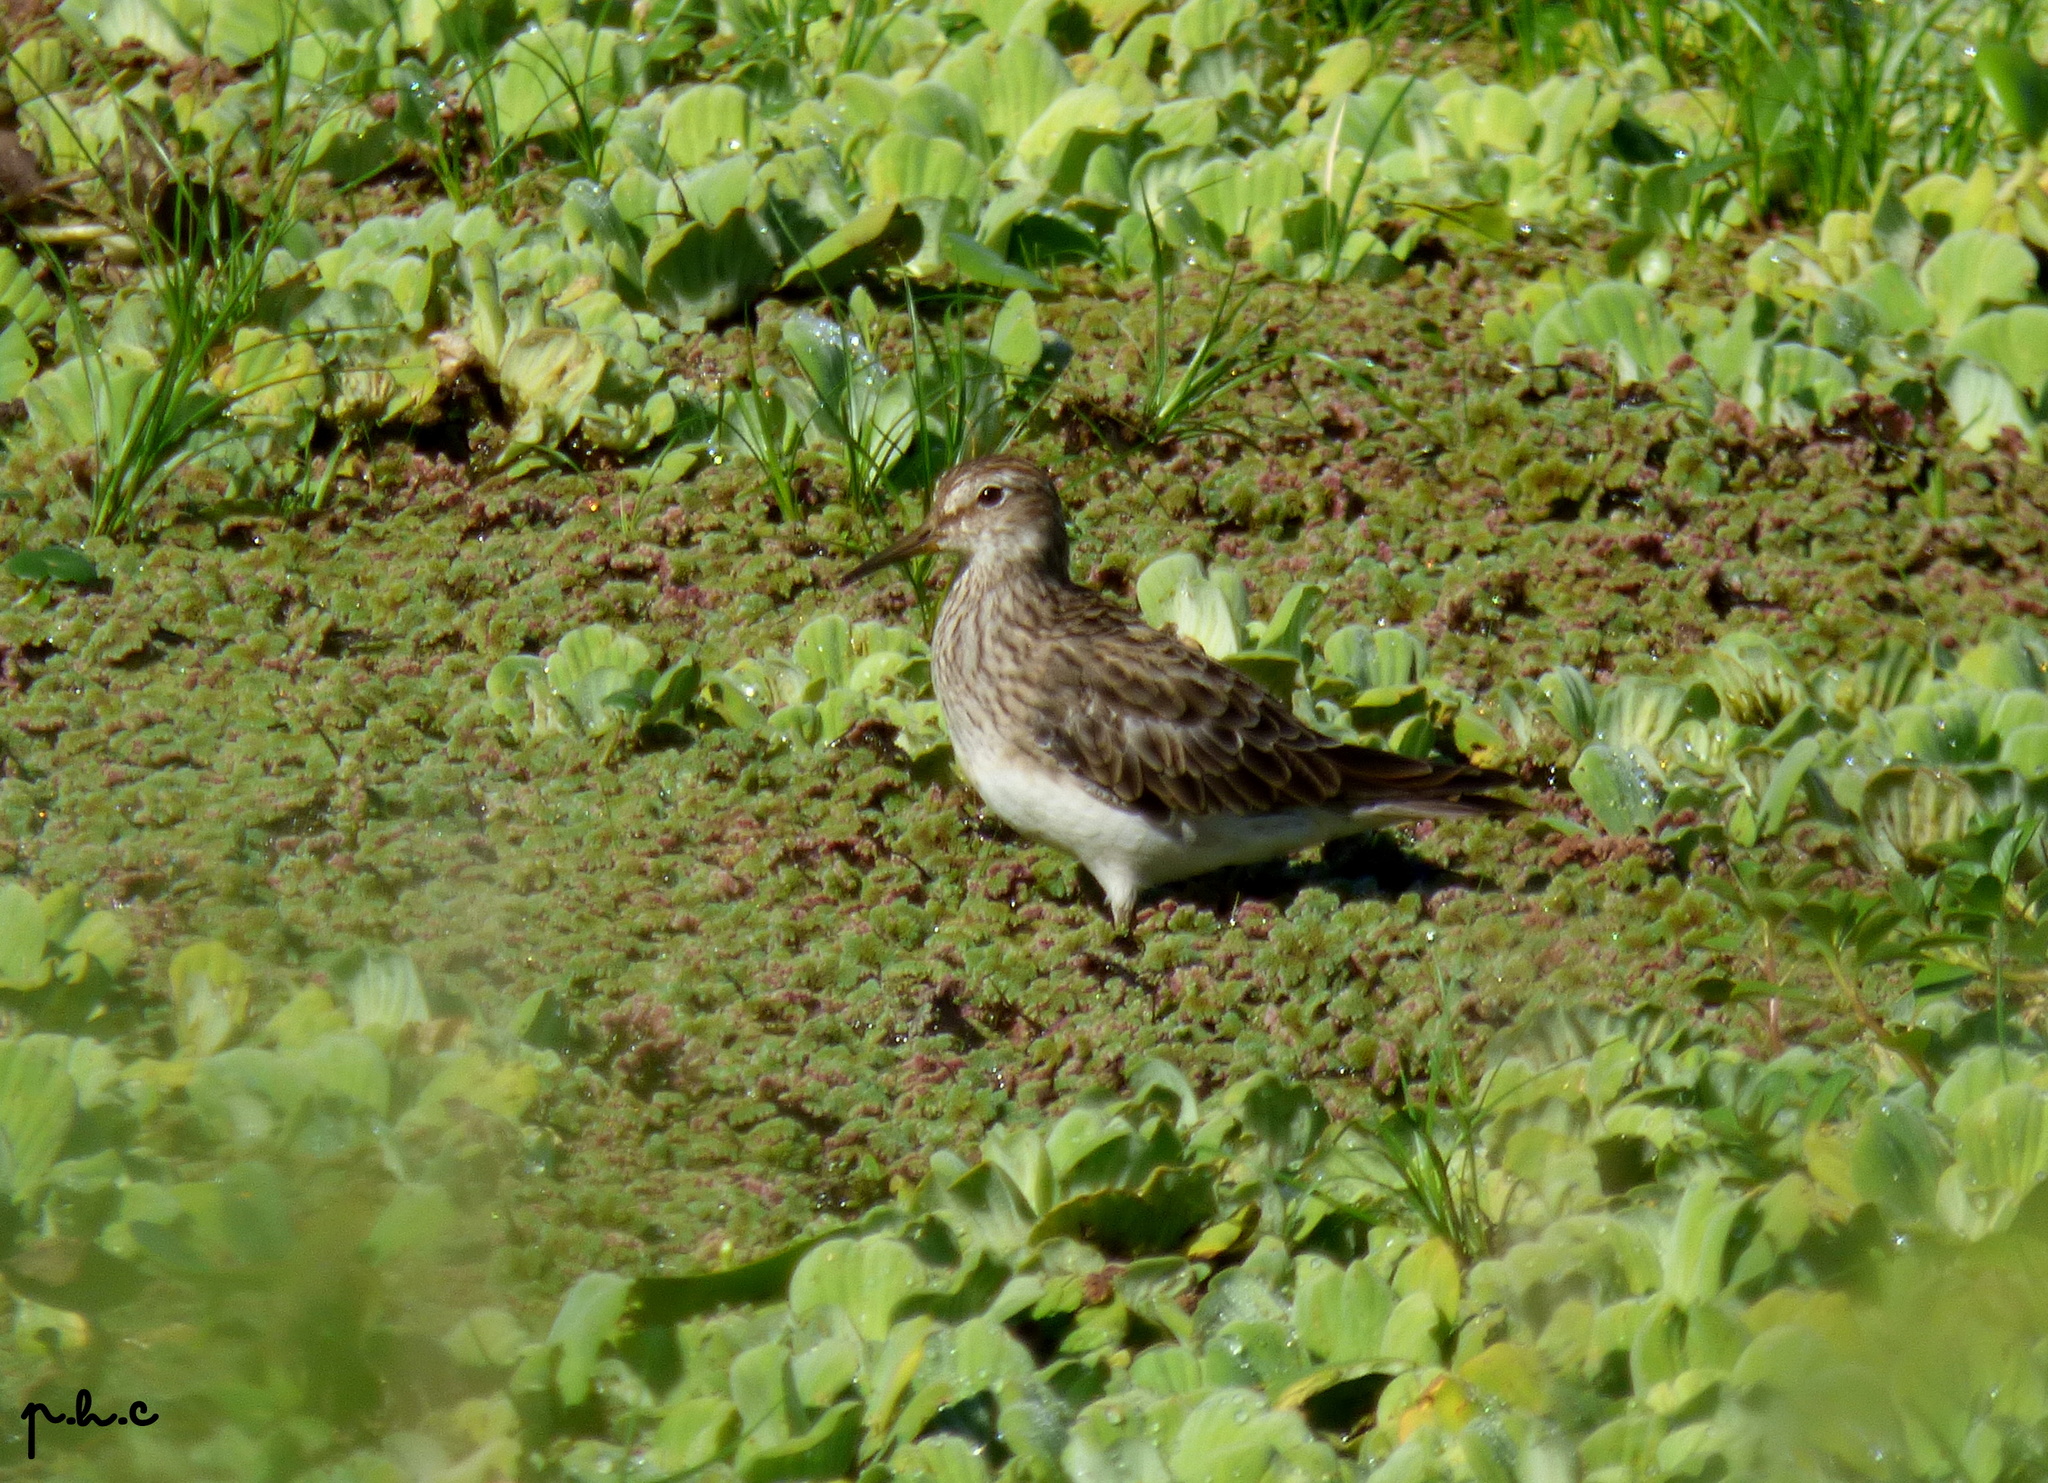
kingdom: Animalia
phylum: Chordata
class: Aves
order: Charadriiformes
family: Scolopacidae
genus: Calidris
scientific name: Calidris melanotos
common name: Pectoral sandpiper
